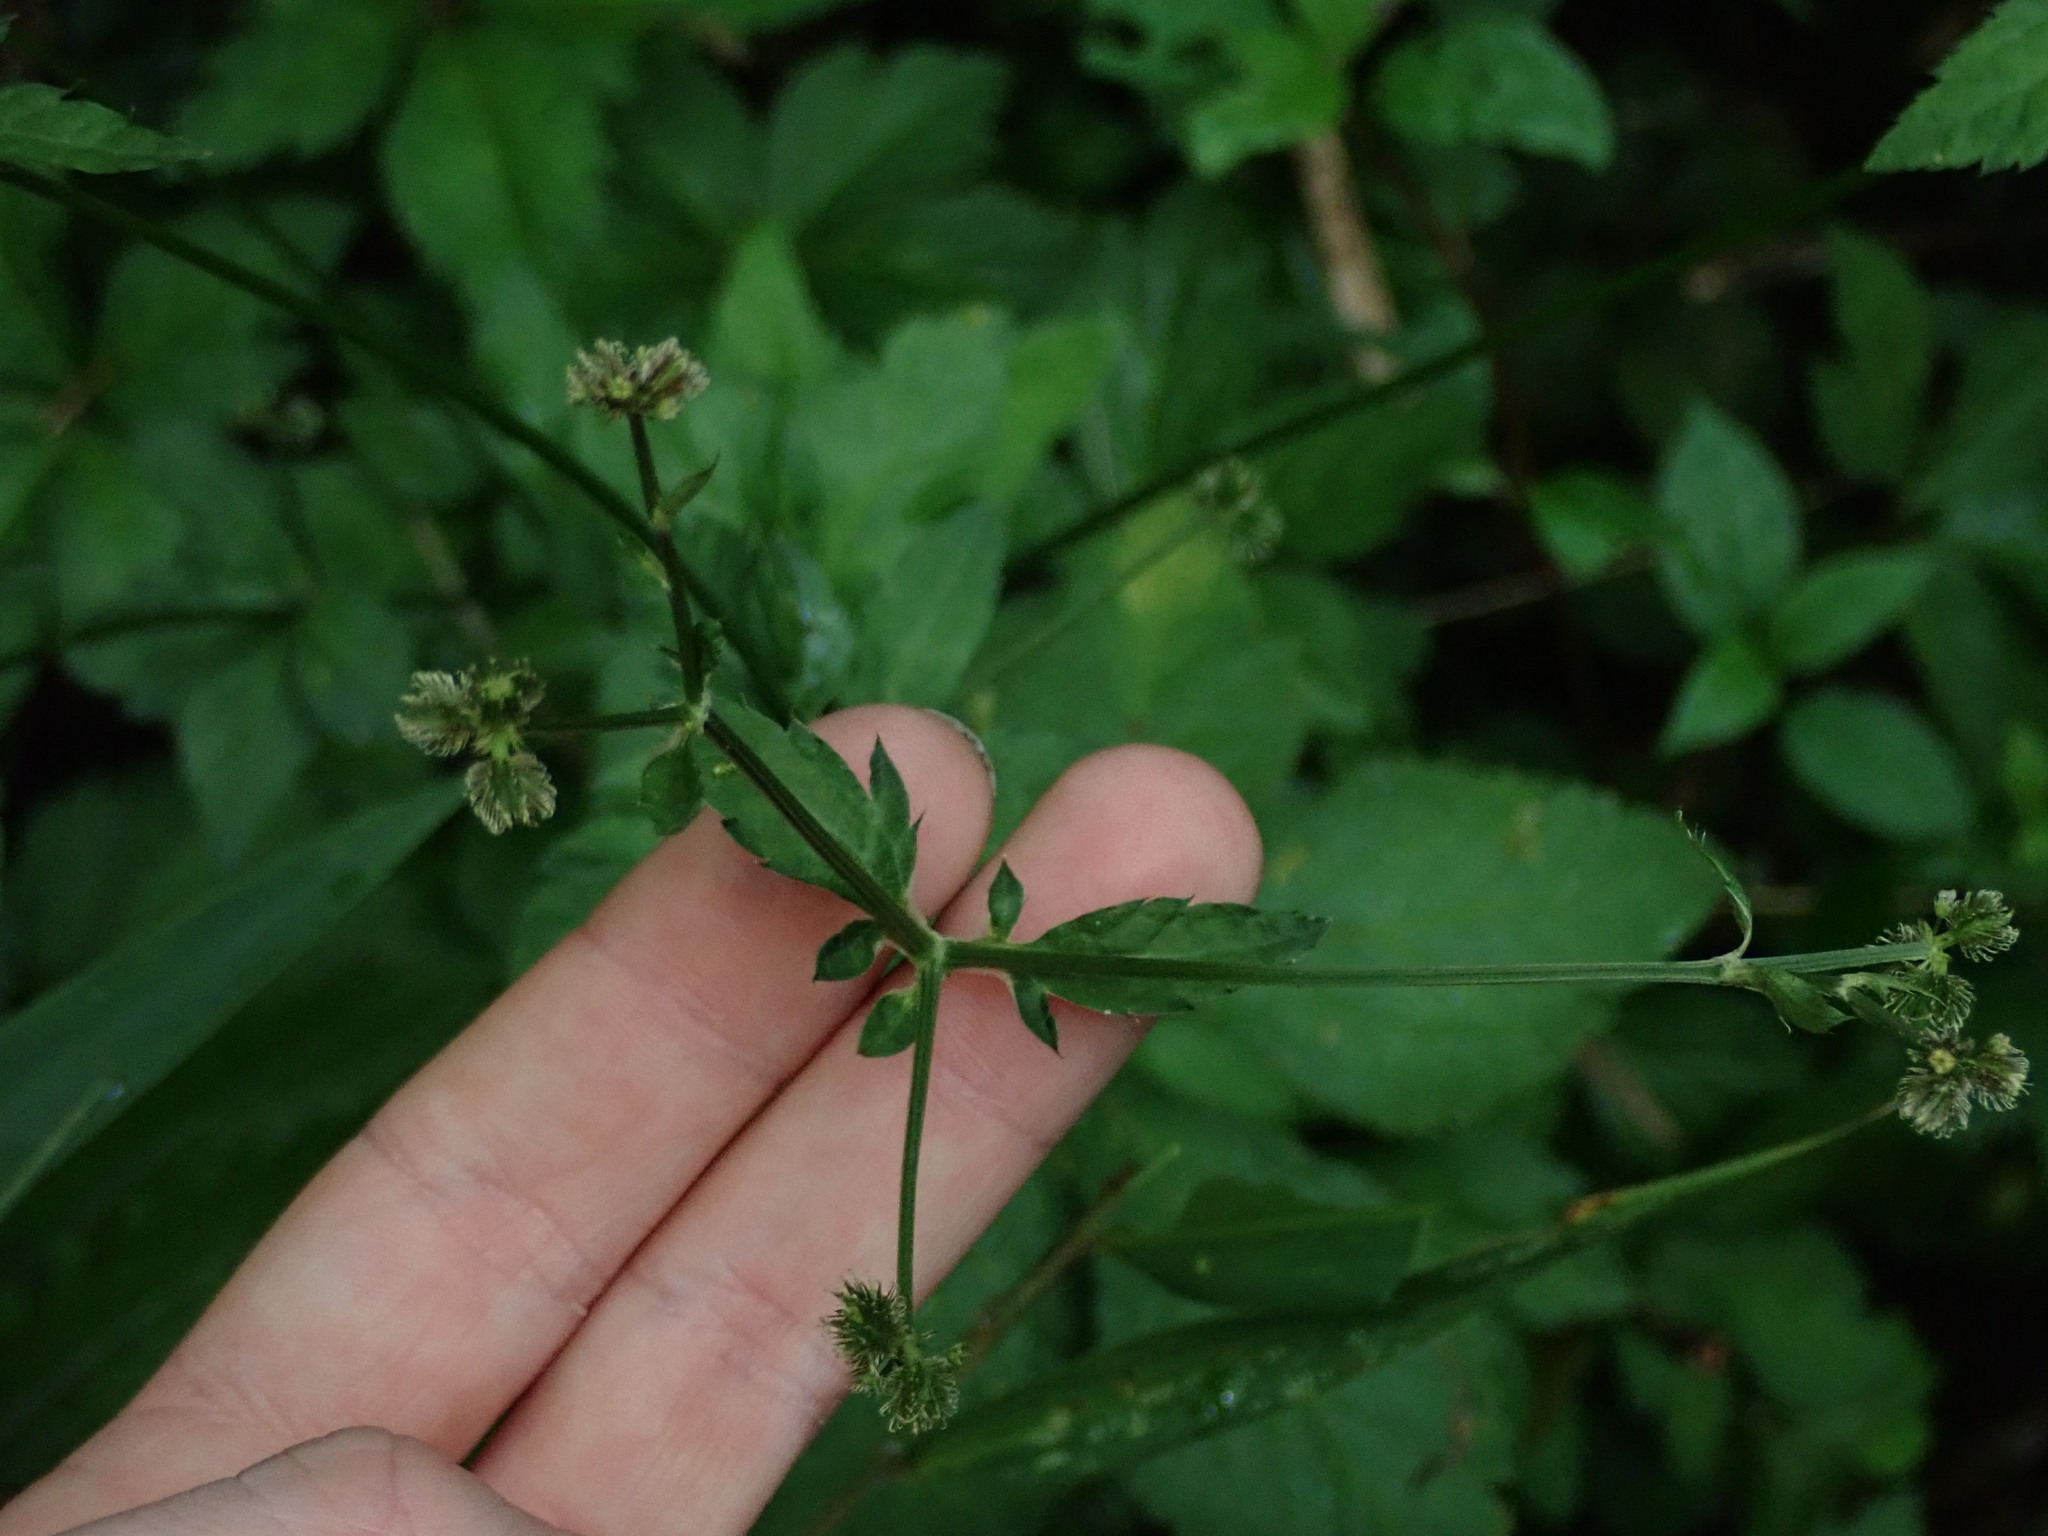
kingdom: Plantae
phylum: Tracheophyta
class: Magnoliopsida
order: Apiales
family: Apiaceae
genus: Sanicula
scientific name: Sanicula liberta
